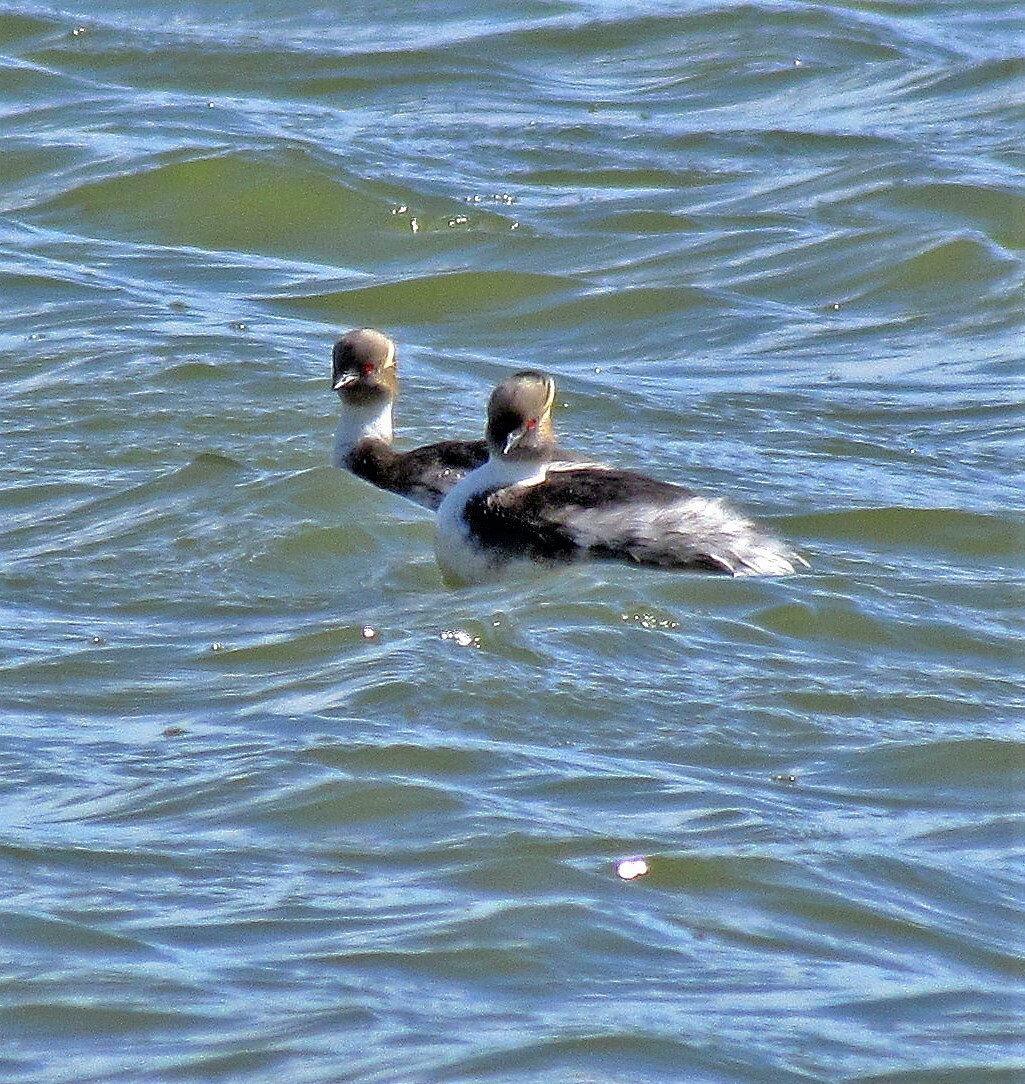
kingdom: Animalia
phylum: Chordata
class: Aves
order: Podicipediformes
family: Podicipedidae
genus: Podiceps
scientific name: Podiceps occipitalis
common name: Silvery grebe
